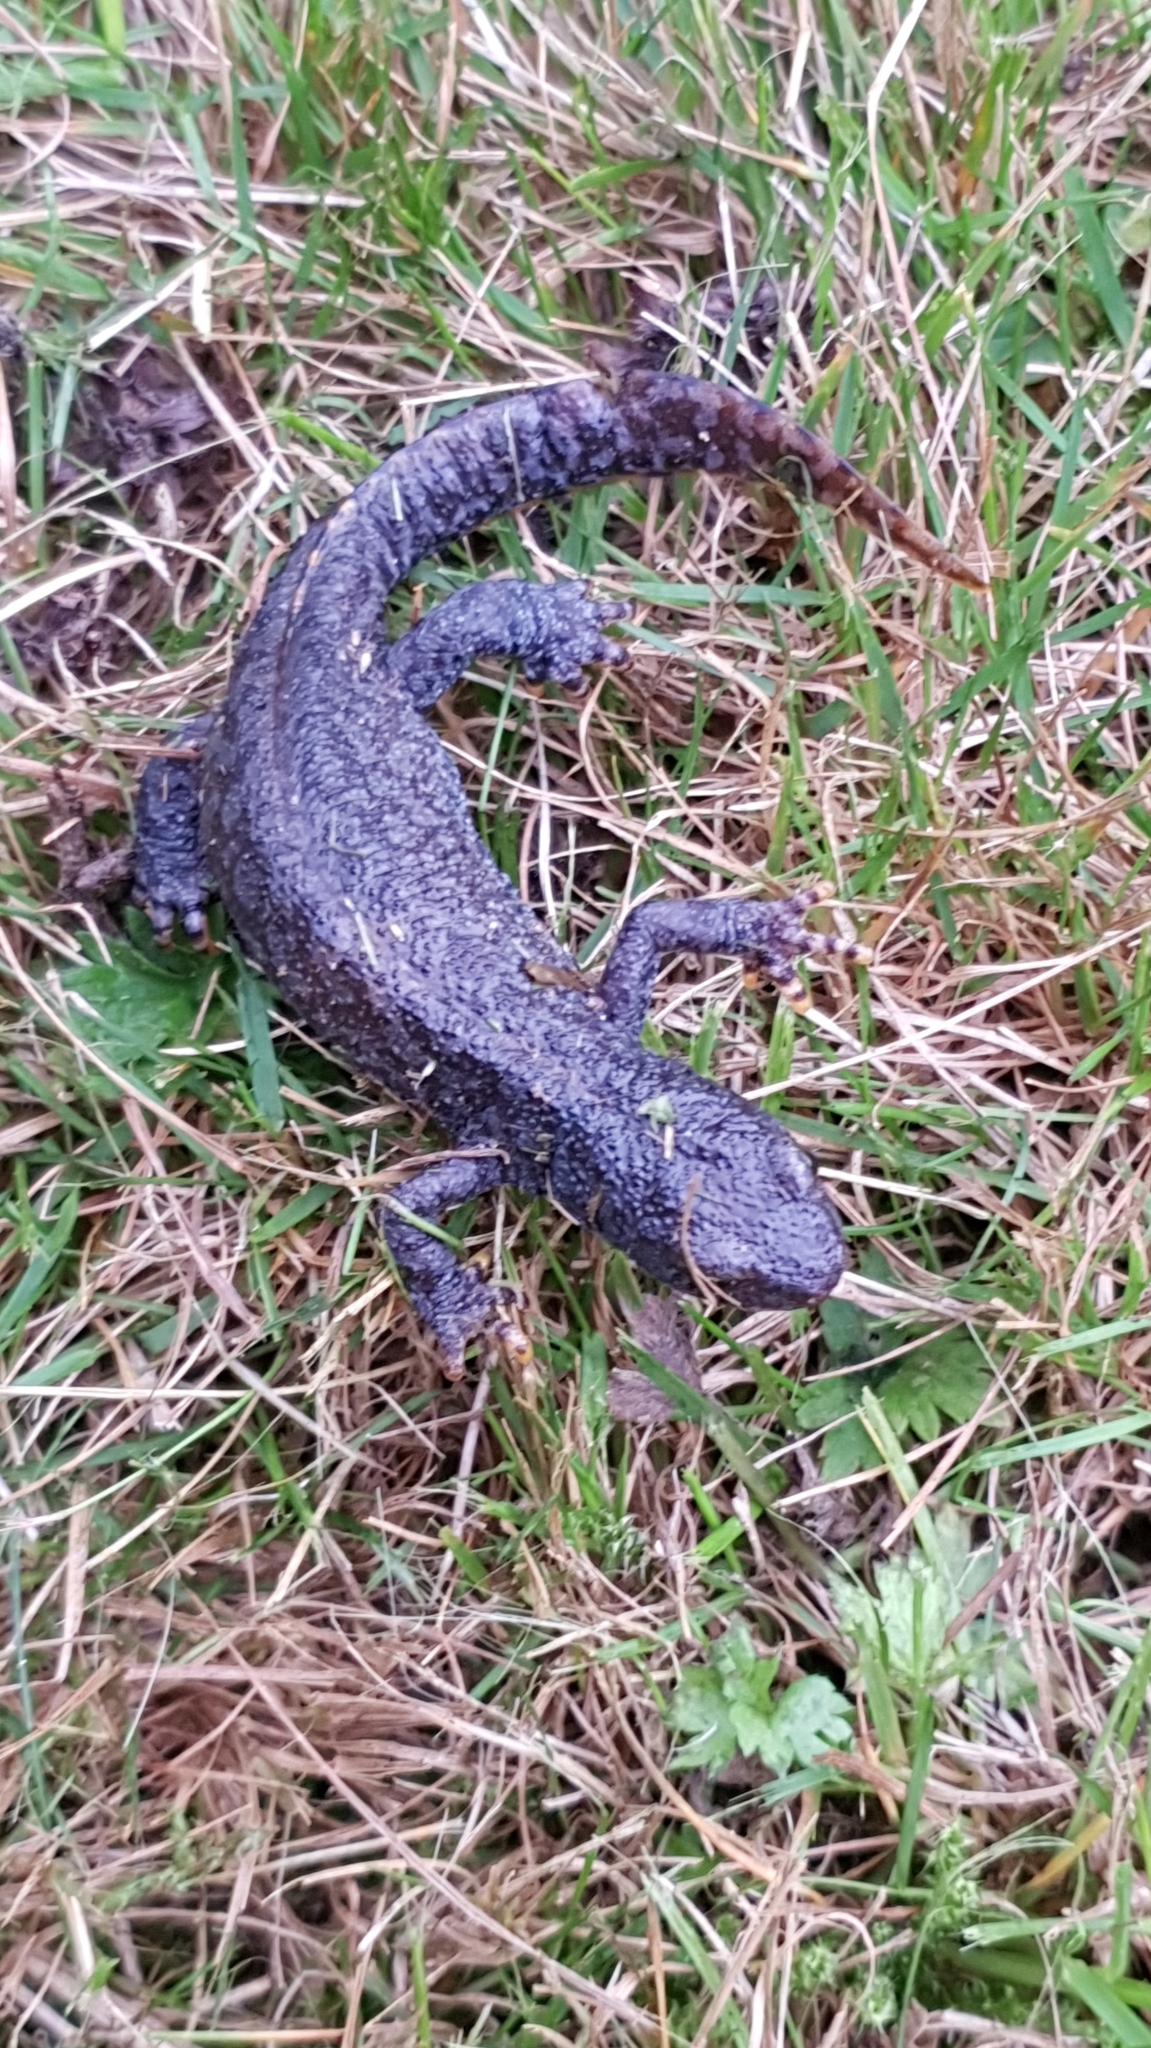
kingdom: Animalia
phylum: Chordata
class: Amphibia
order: Caudata
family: Salamandridae
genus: Ichthyosaura
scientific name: Ichthyosaura alpestris
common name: Alpine newt
